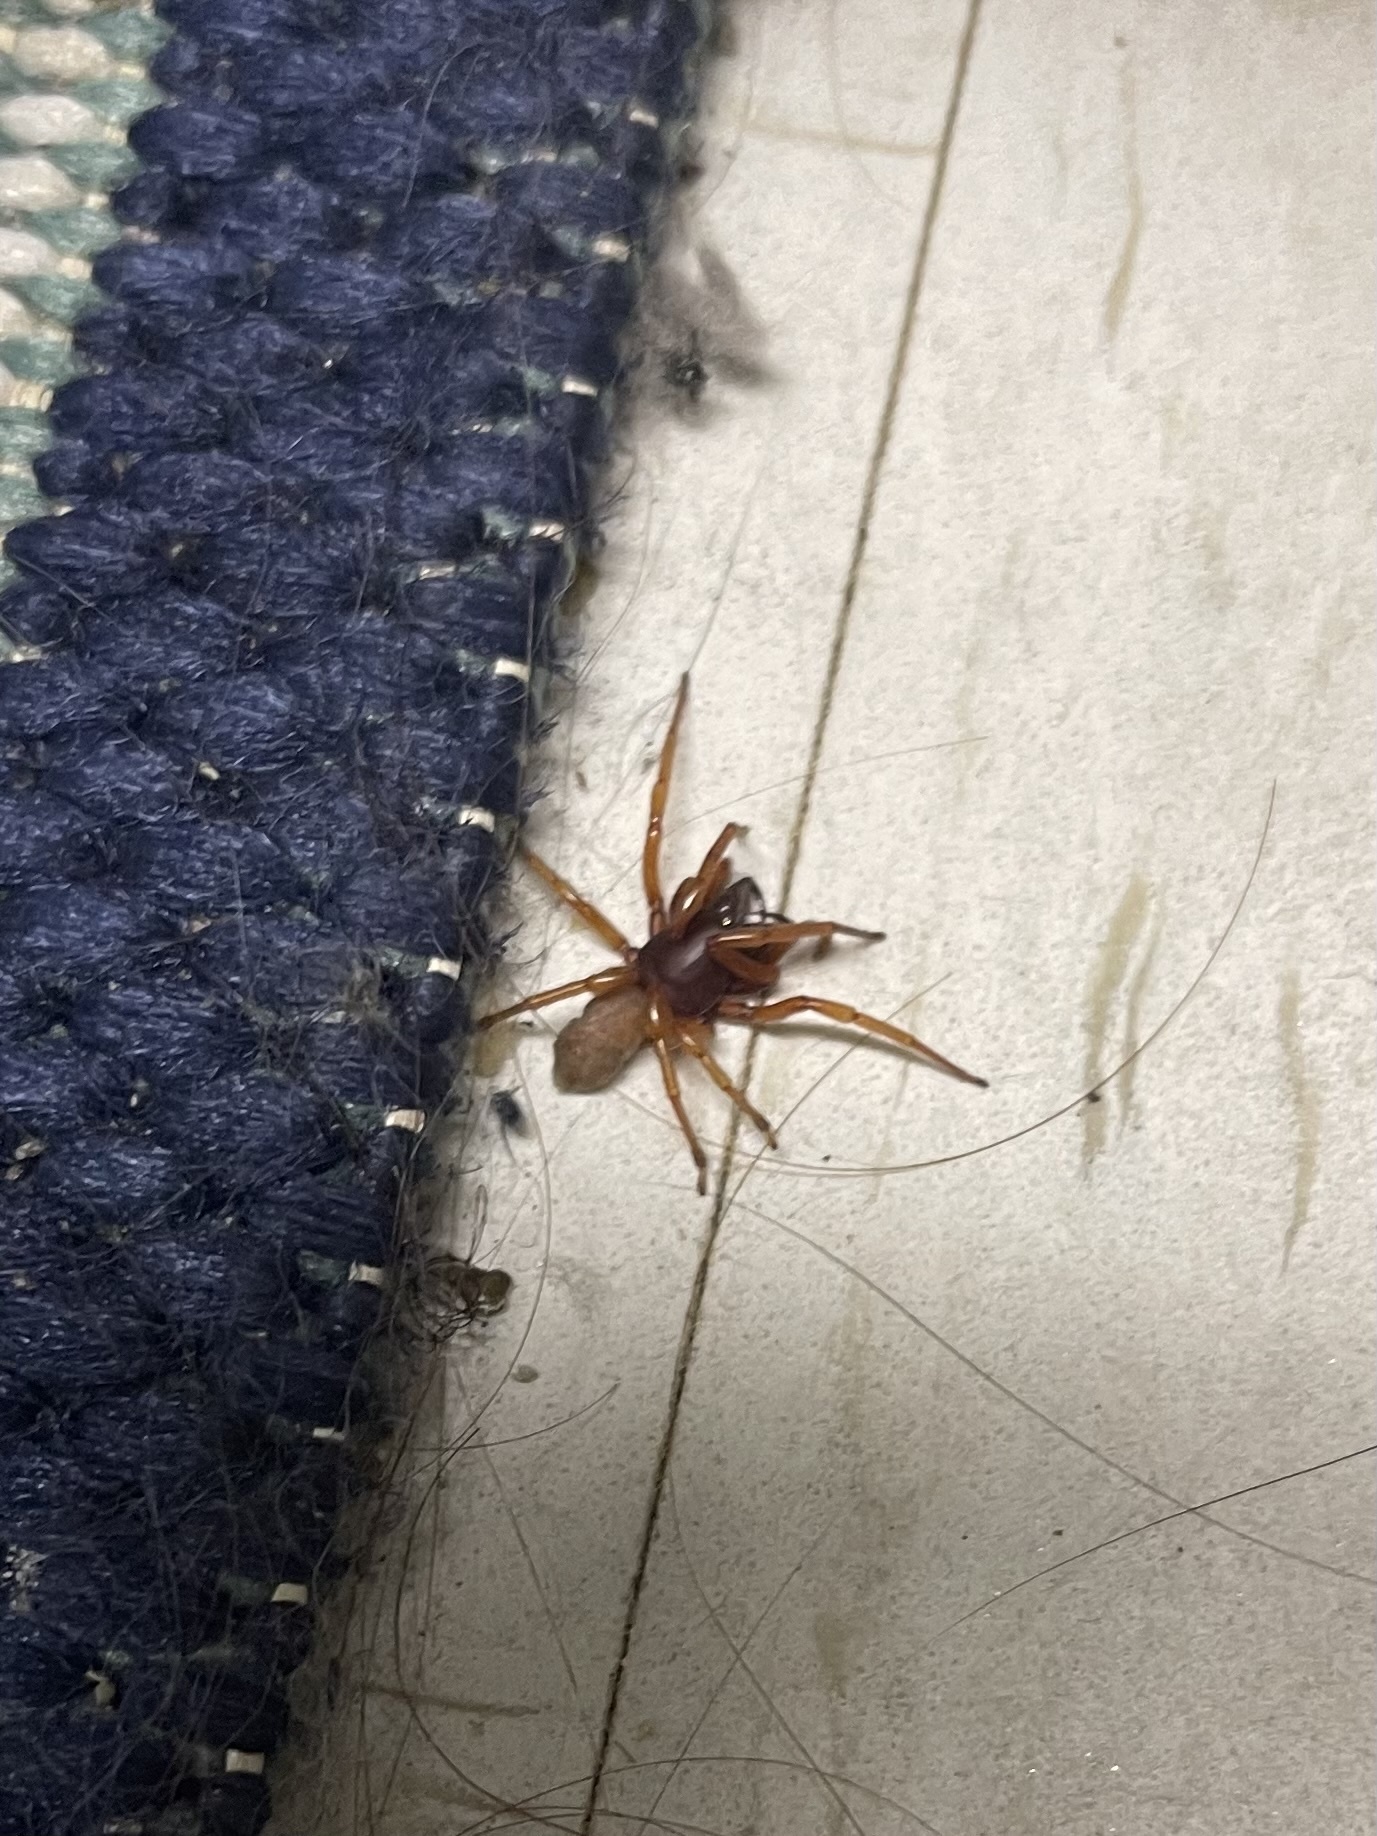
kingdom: Animalia
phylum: Arthropoda
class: Arachnida
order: Araneae
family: Dysderidae
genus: Dysdera
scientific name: Dysdera crocata
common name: Woodlouse spider
